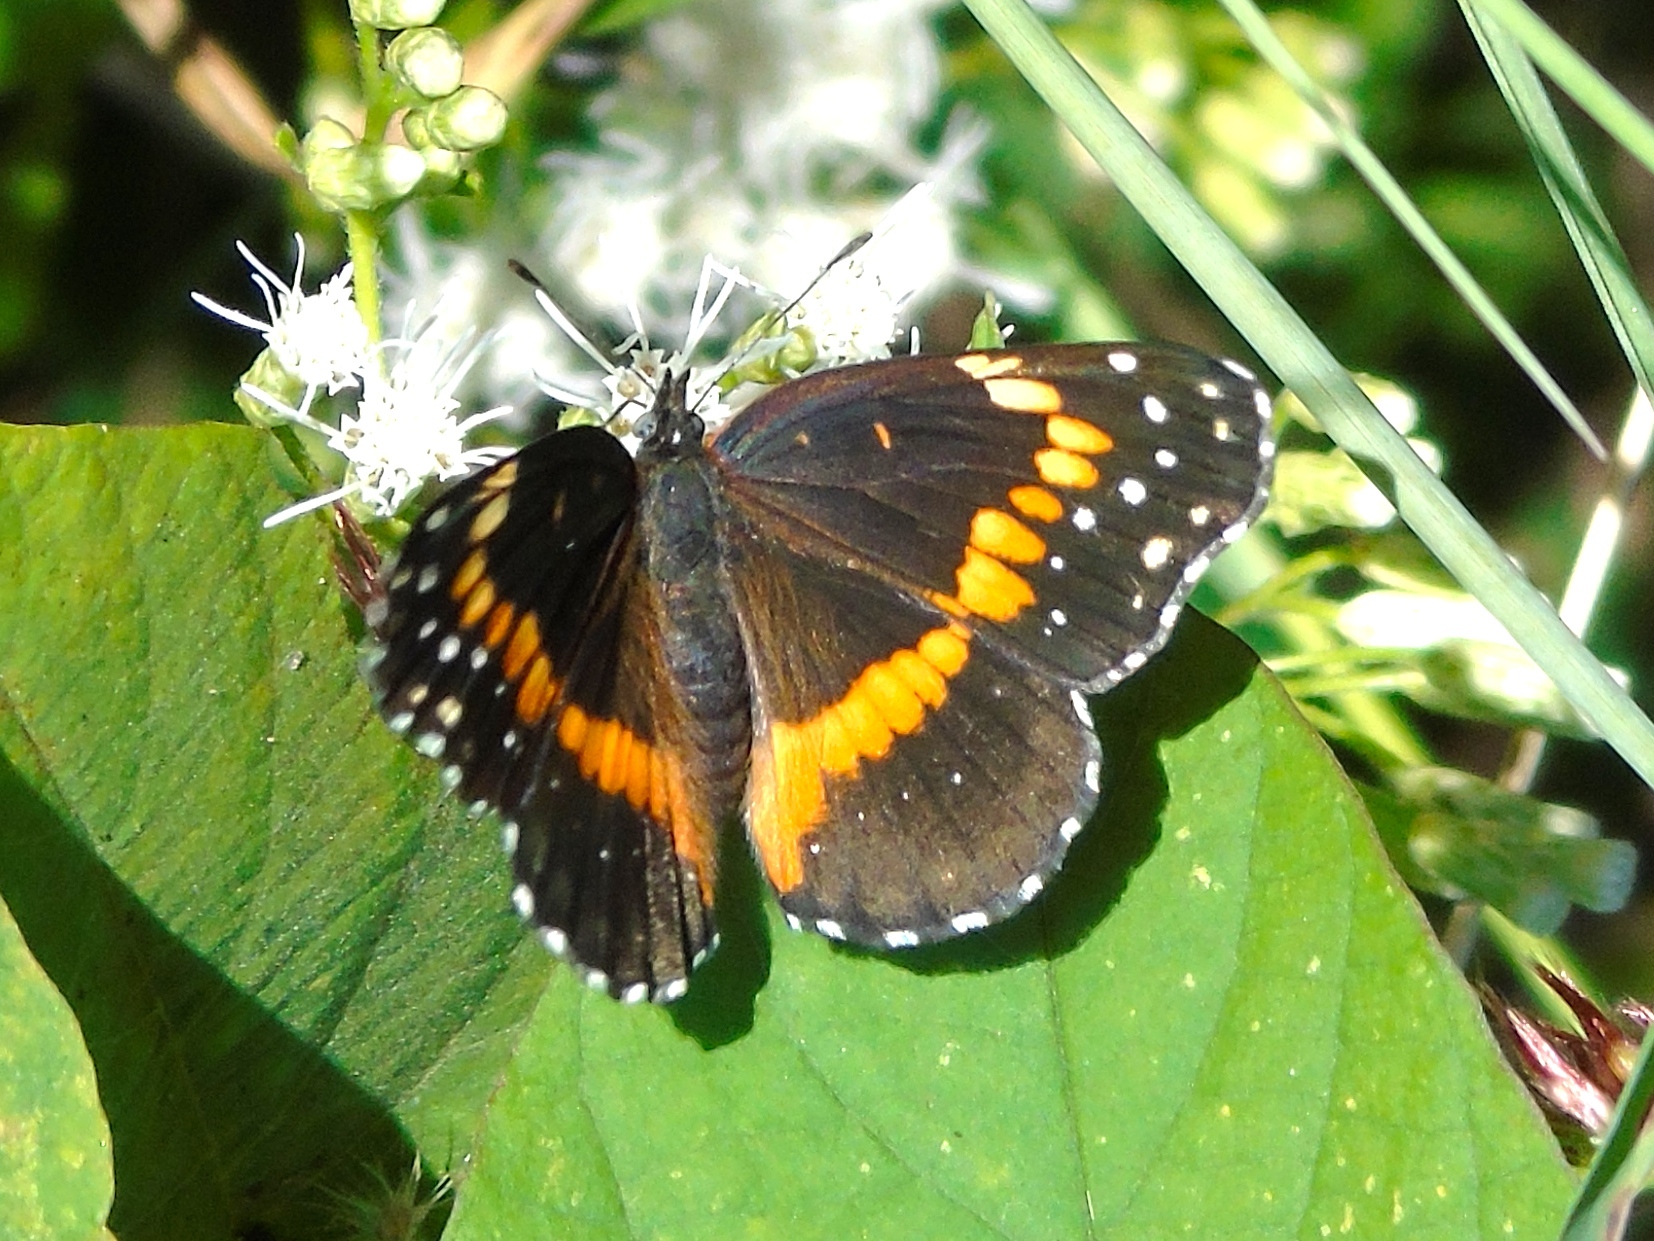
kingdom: Animalia
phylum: Arthropoda
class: Insecta
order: Lepidoptera
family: Nymphalidae
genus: Chlosyne
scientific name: Chlosyne lacinia
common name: Bordered patch
